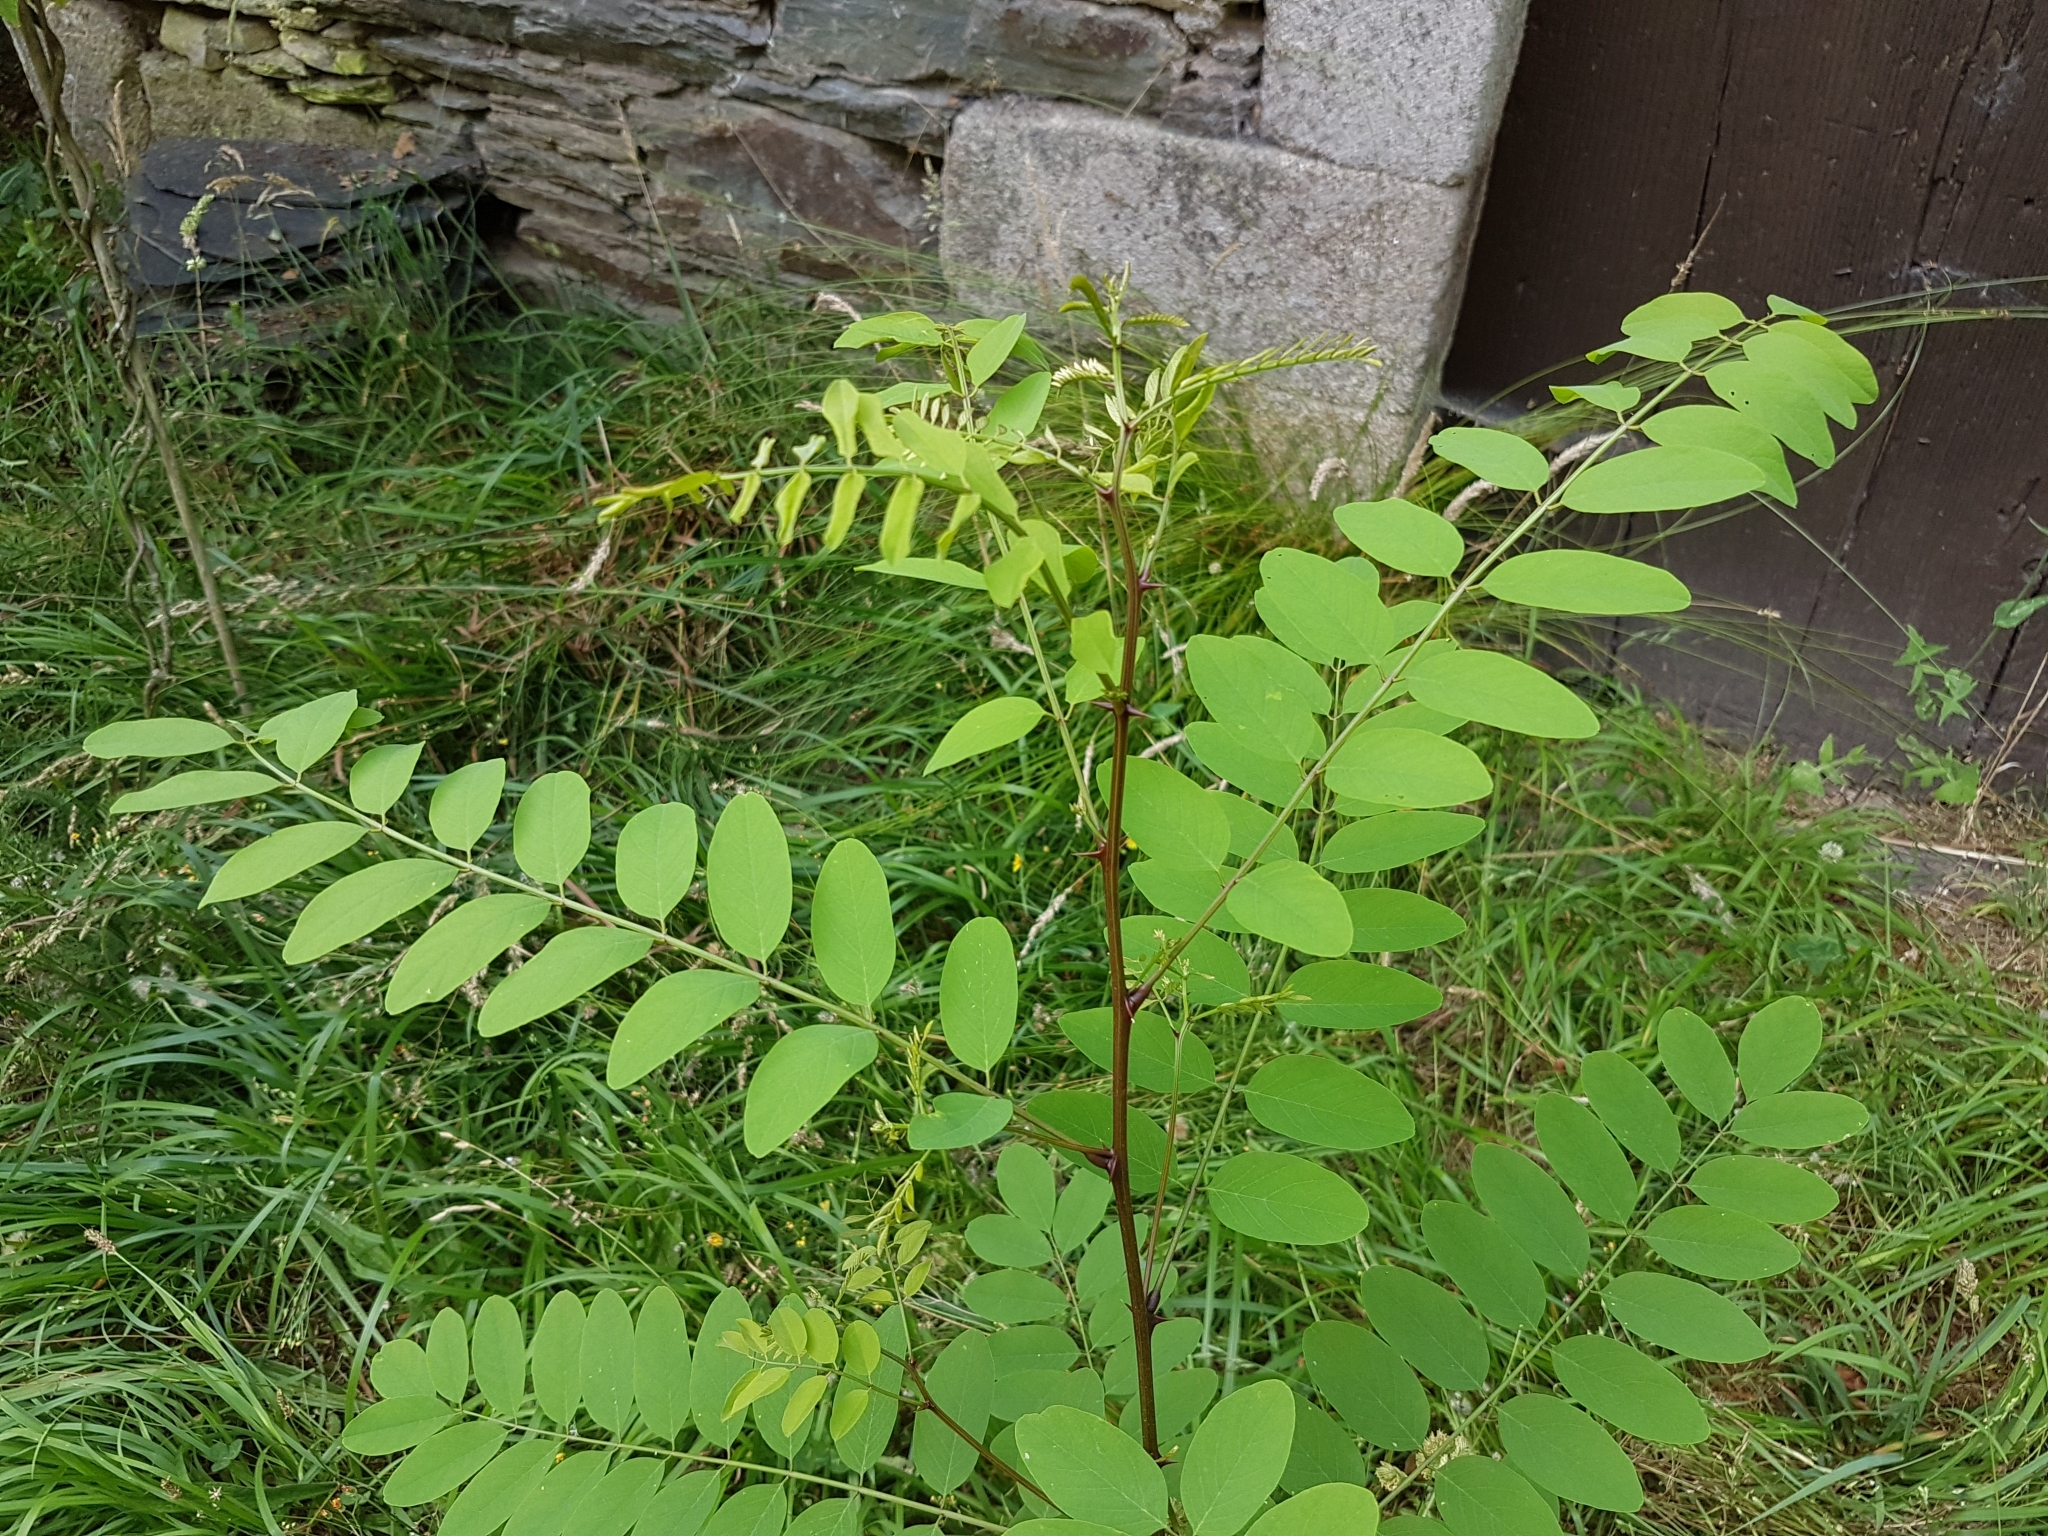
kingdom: Plantae
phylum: Tracheophyta
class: Magnoliopsida
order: Fabales
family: Fabaceae
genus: Robinia
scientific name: Robinia pseudoacacia
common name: Black locust
